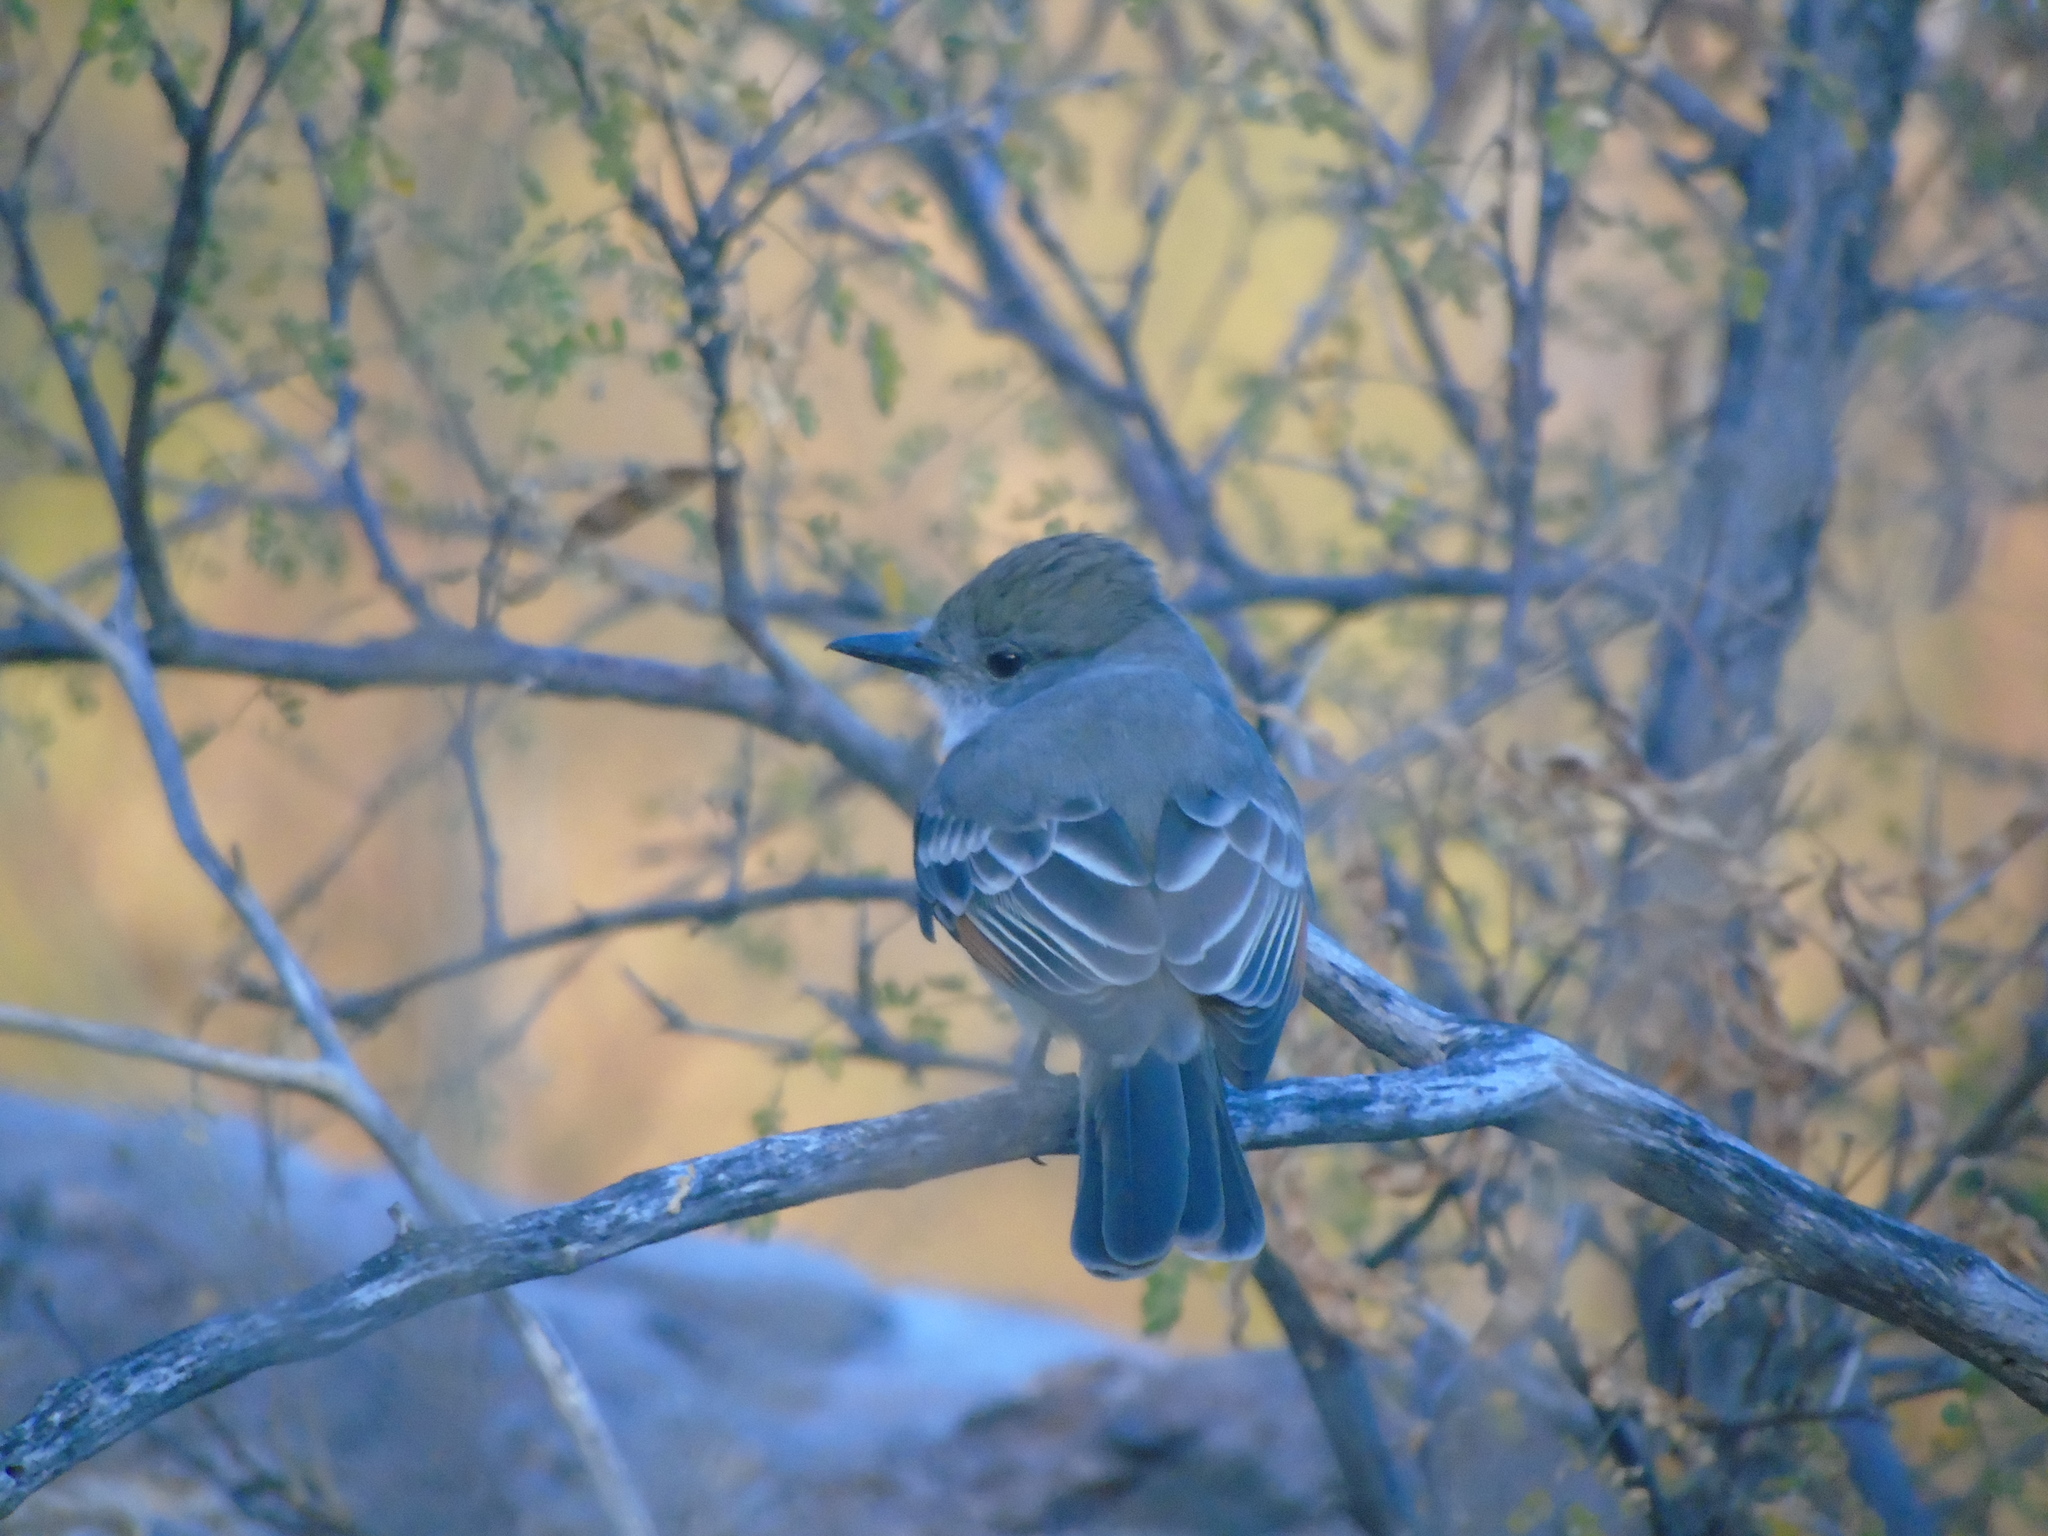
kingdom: Animalia
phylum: Chordata
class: Aves
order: Passeriformes
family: Tyrannidae
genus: Myiarchus
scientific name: Myiarchus cinerascens
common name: Ash-throated flycatcher
